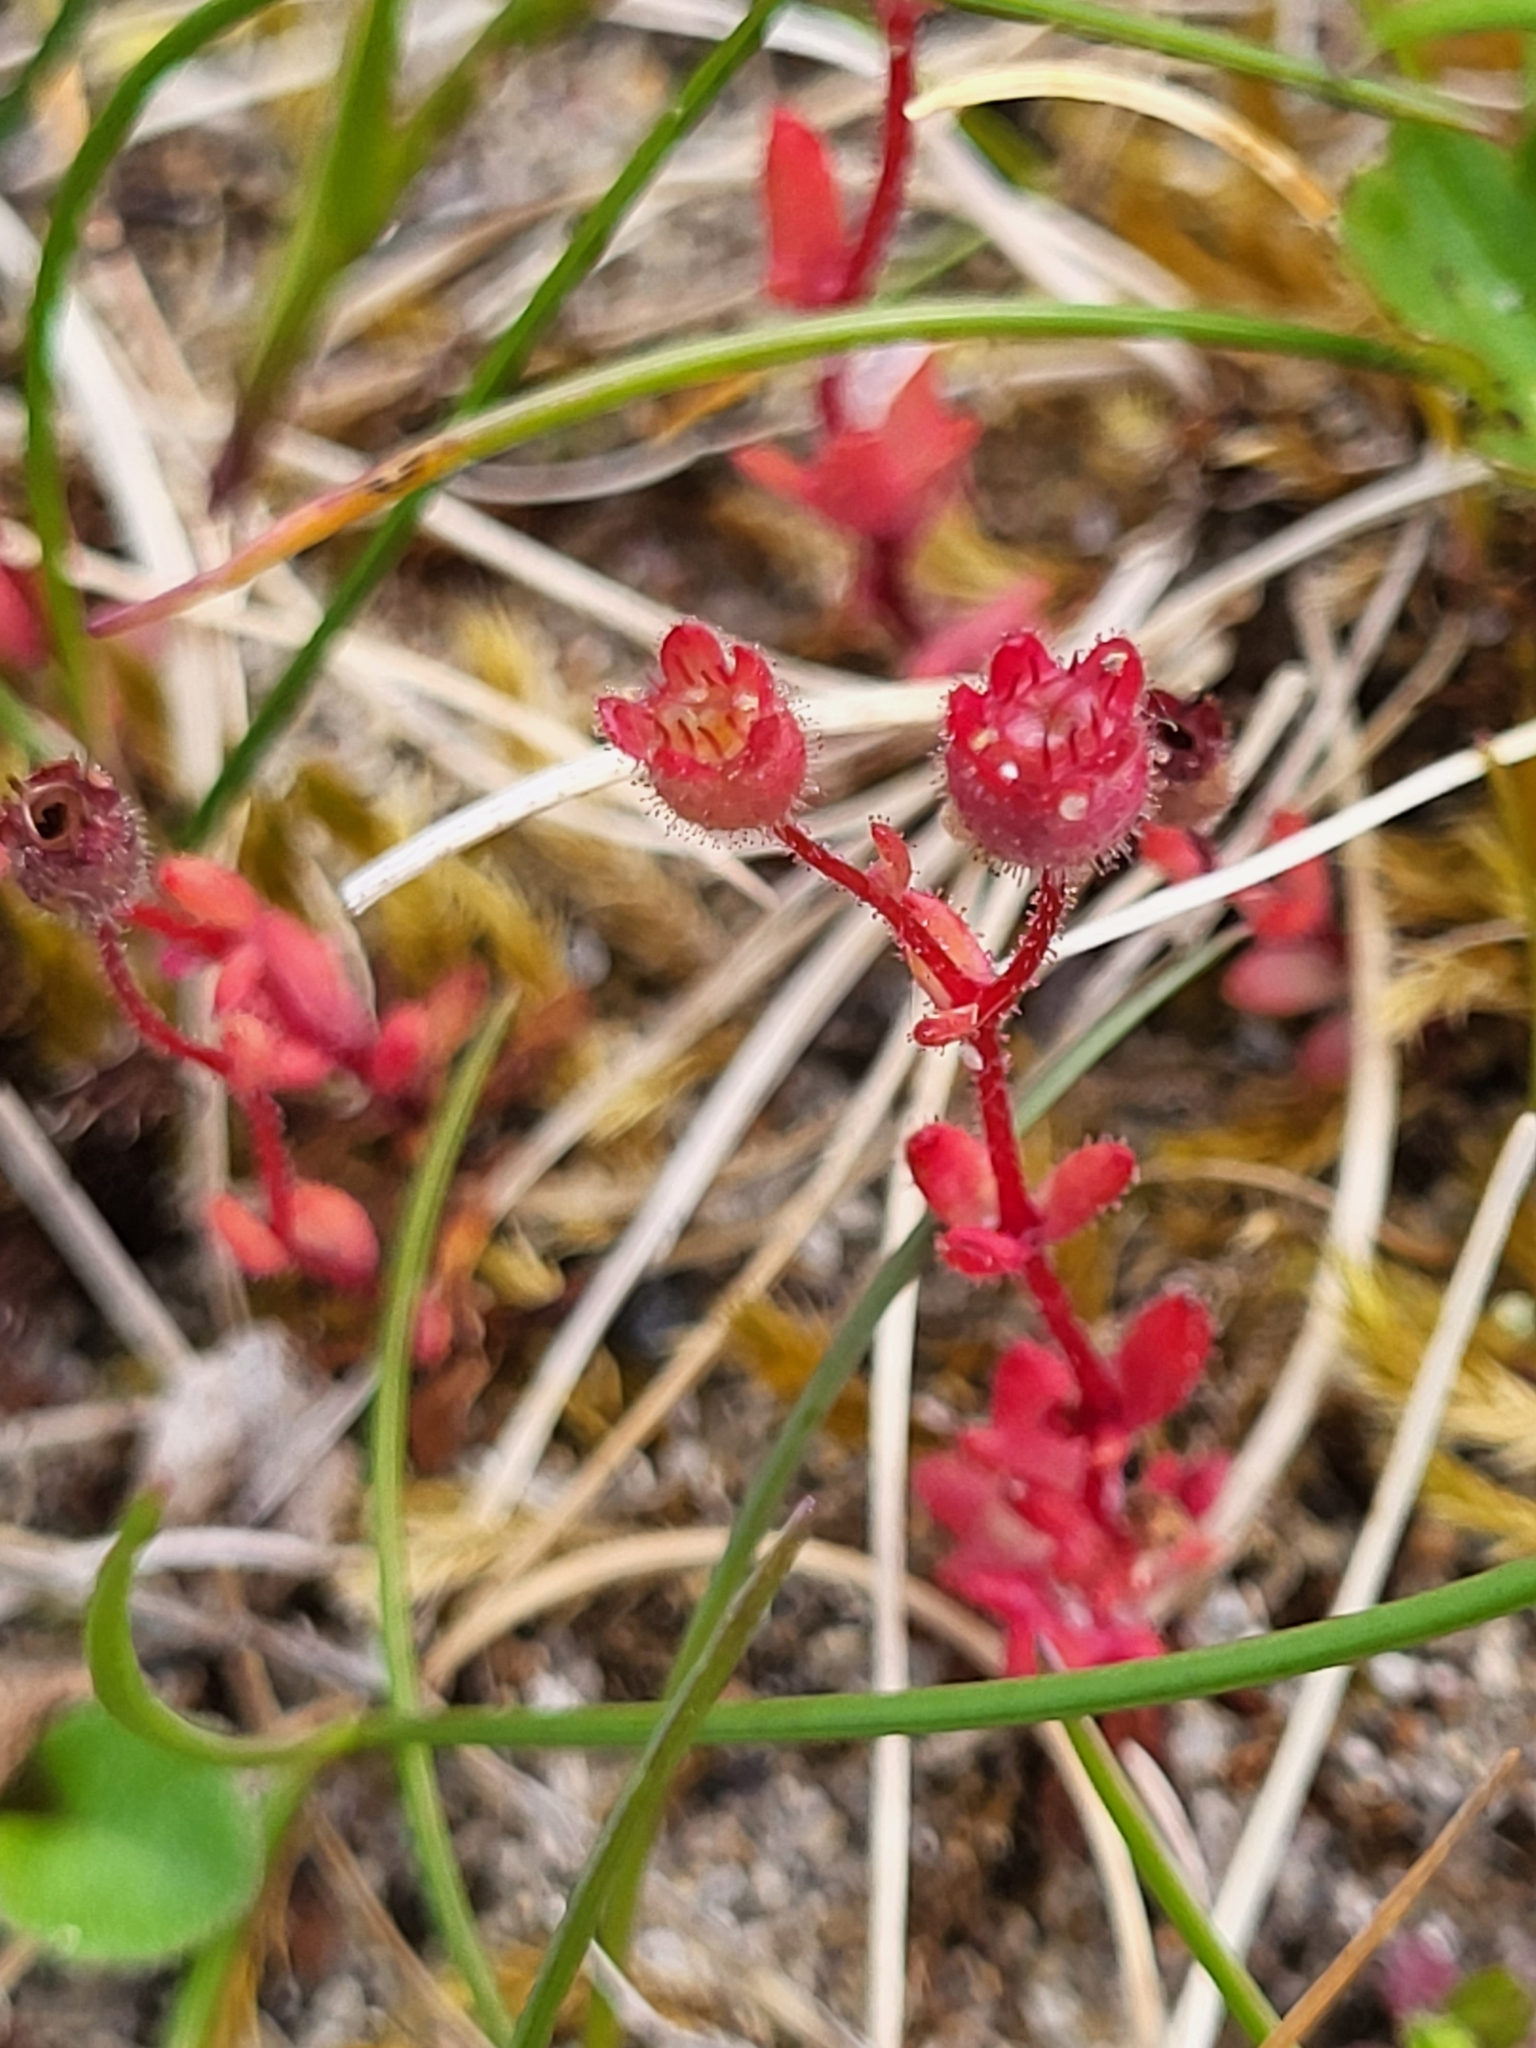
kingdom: Plantae
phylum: Tracheophyta
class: Magnoliopsida
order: Saxifragales
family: Saxifragaceae
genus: Saxifraga
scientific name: Saxifraga tridactylites
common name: Rue-leaved saxifrage
